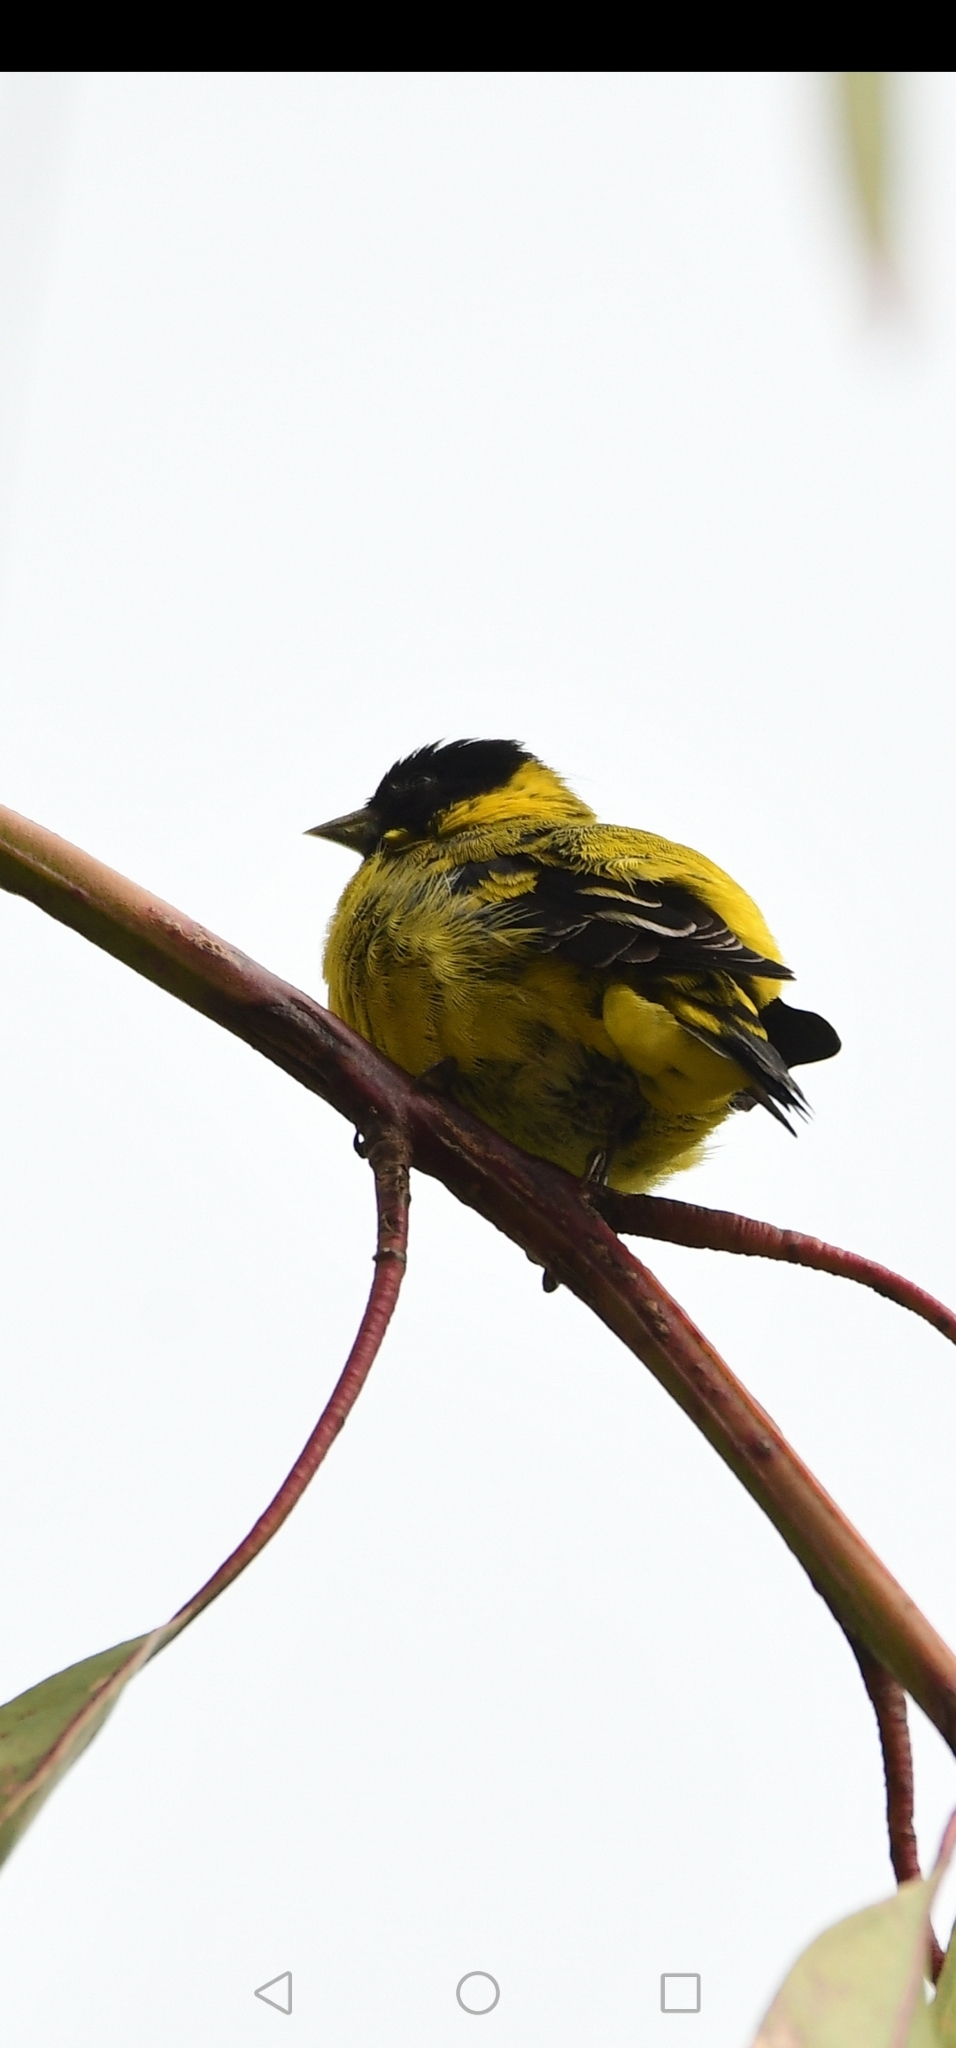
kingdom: Animalia
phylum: Chordata
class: Aves
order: Passeriformes
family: Fringillidae
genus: Spinus
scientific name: Spinus magellanicus
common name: Hooded siskin
